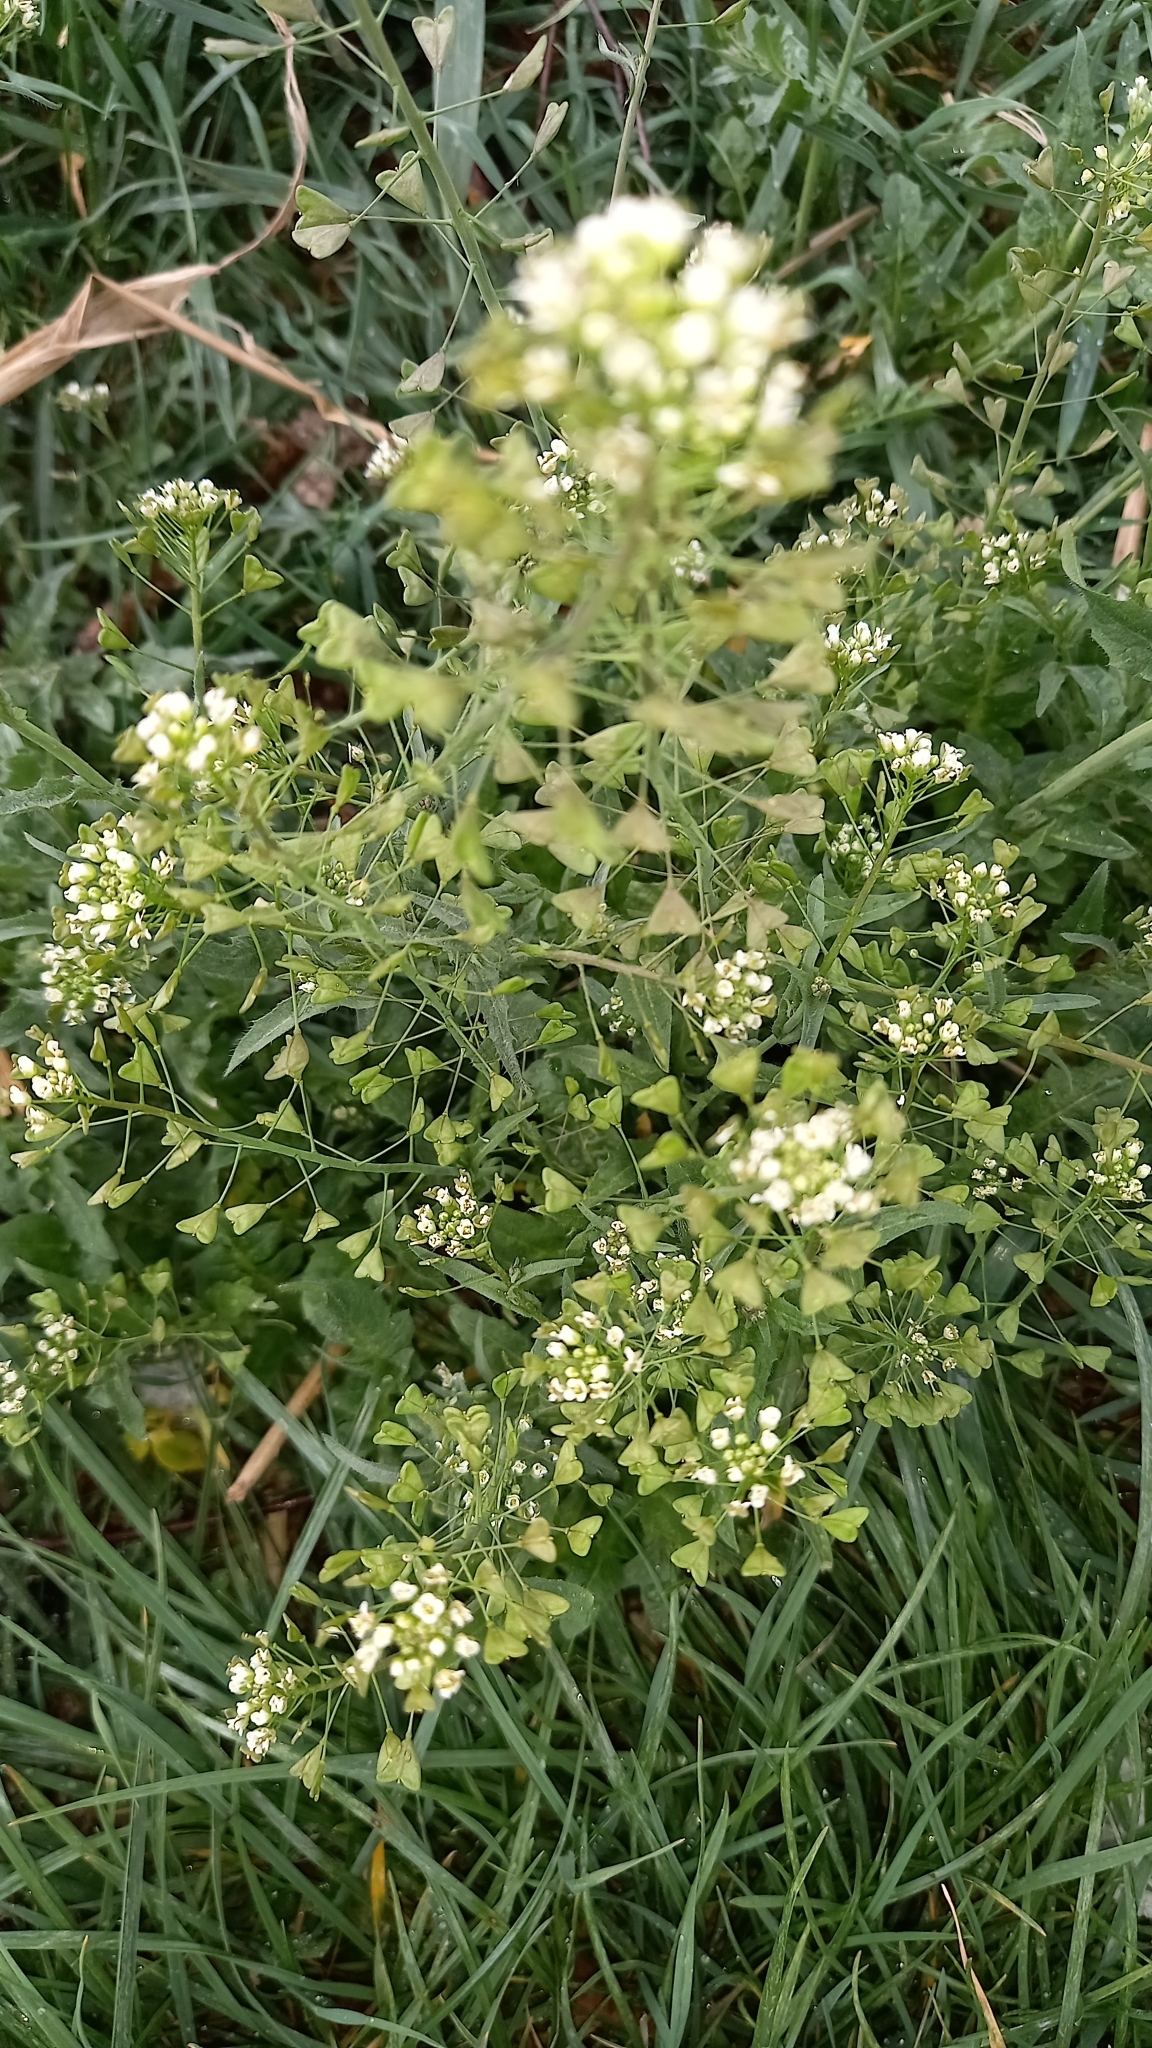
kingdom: Plantae
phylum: Tracheophyta
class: Magnoliopsida
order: Brassicales
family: Brassicaceae
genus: Capsella
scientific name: Capsella bursa-pastoris
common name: Shepherd's purse
